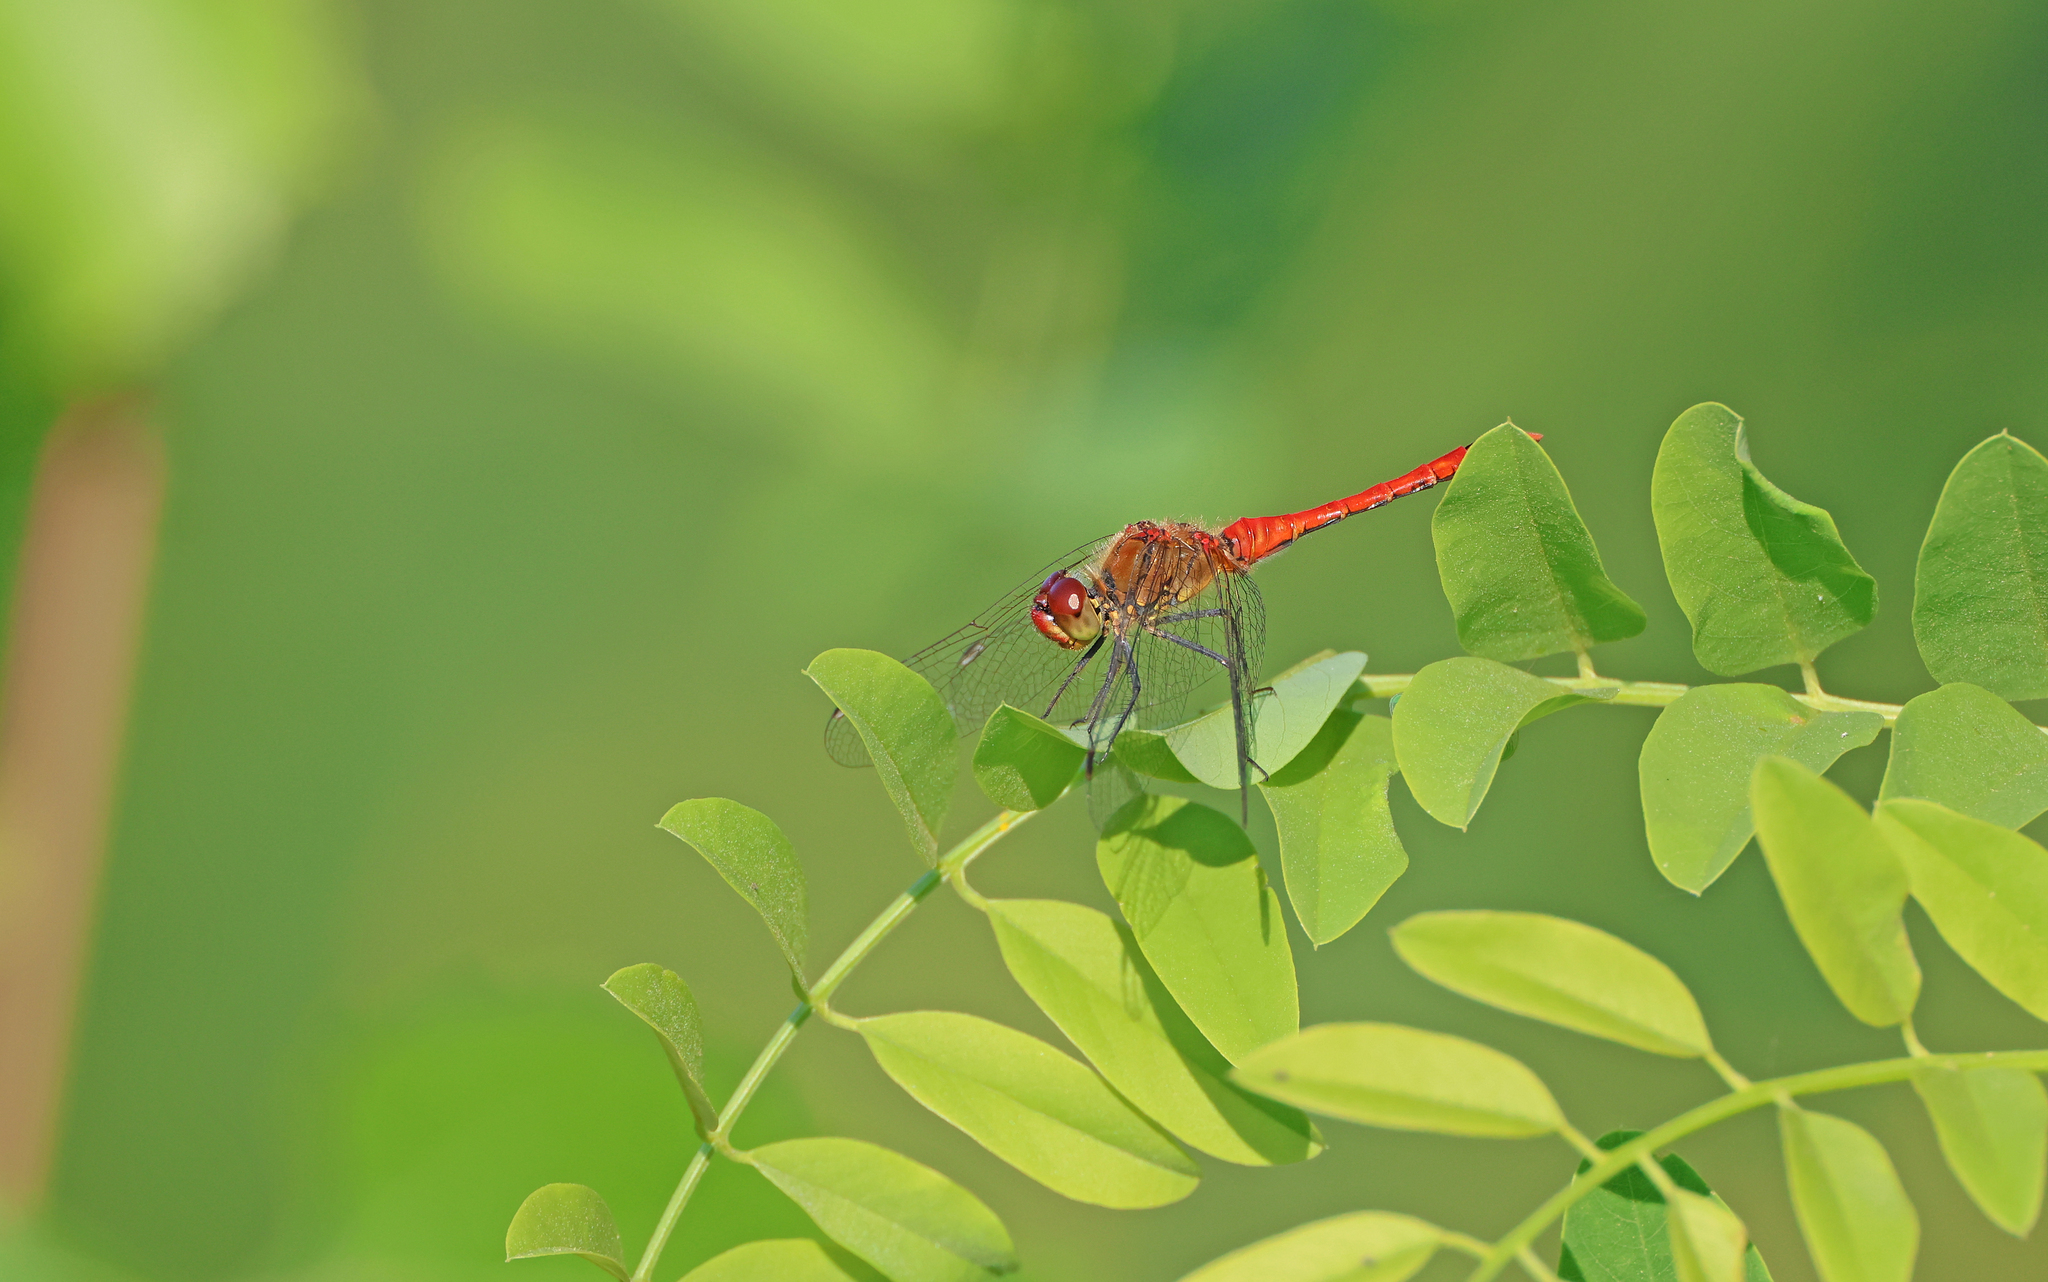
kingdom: Animalia
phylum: Arthropoda
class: Insecta
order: Odonata
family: Libellulidae
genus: Sympetrum
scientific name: Sympetrum sanguineum
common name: Ruddy darter
